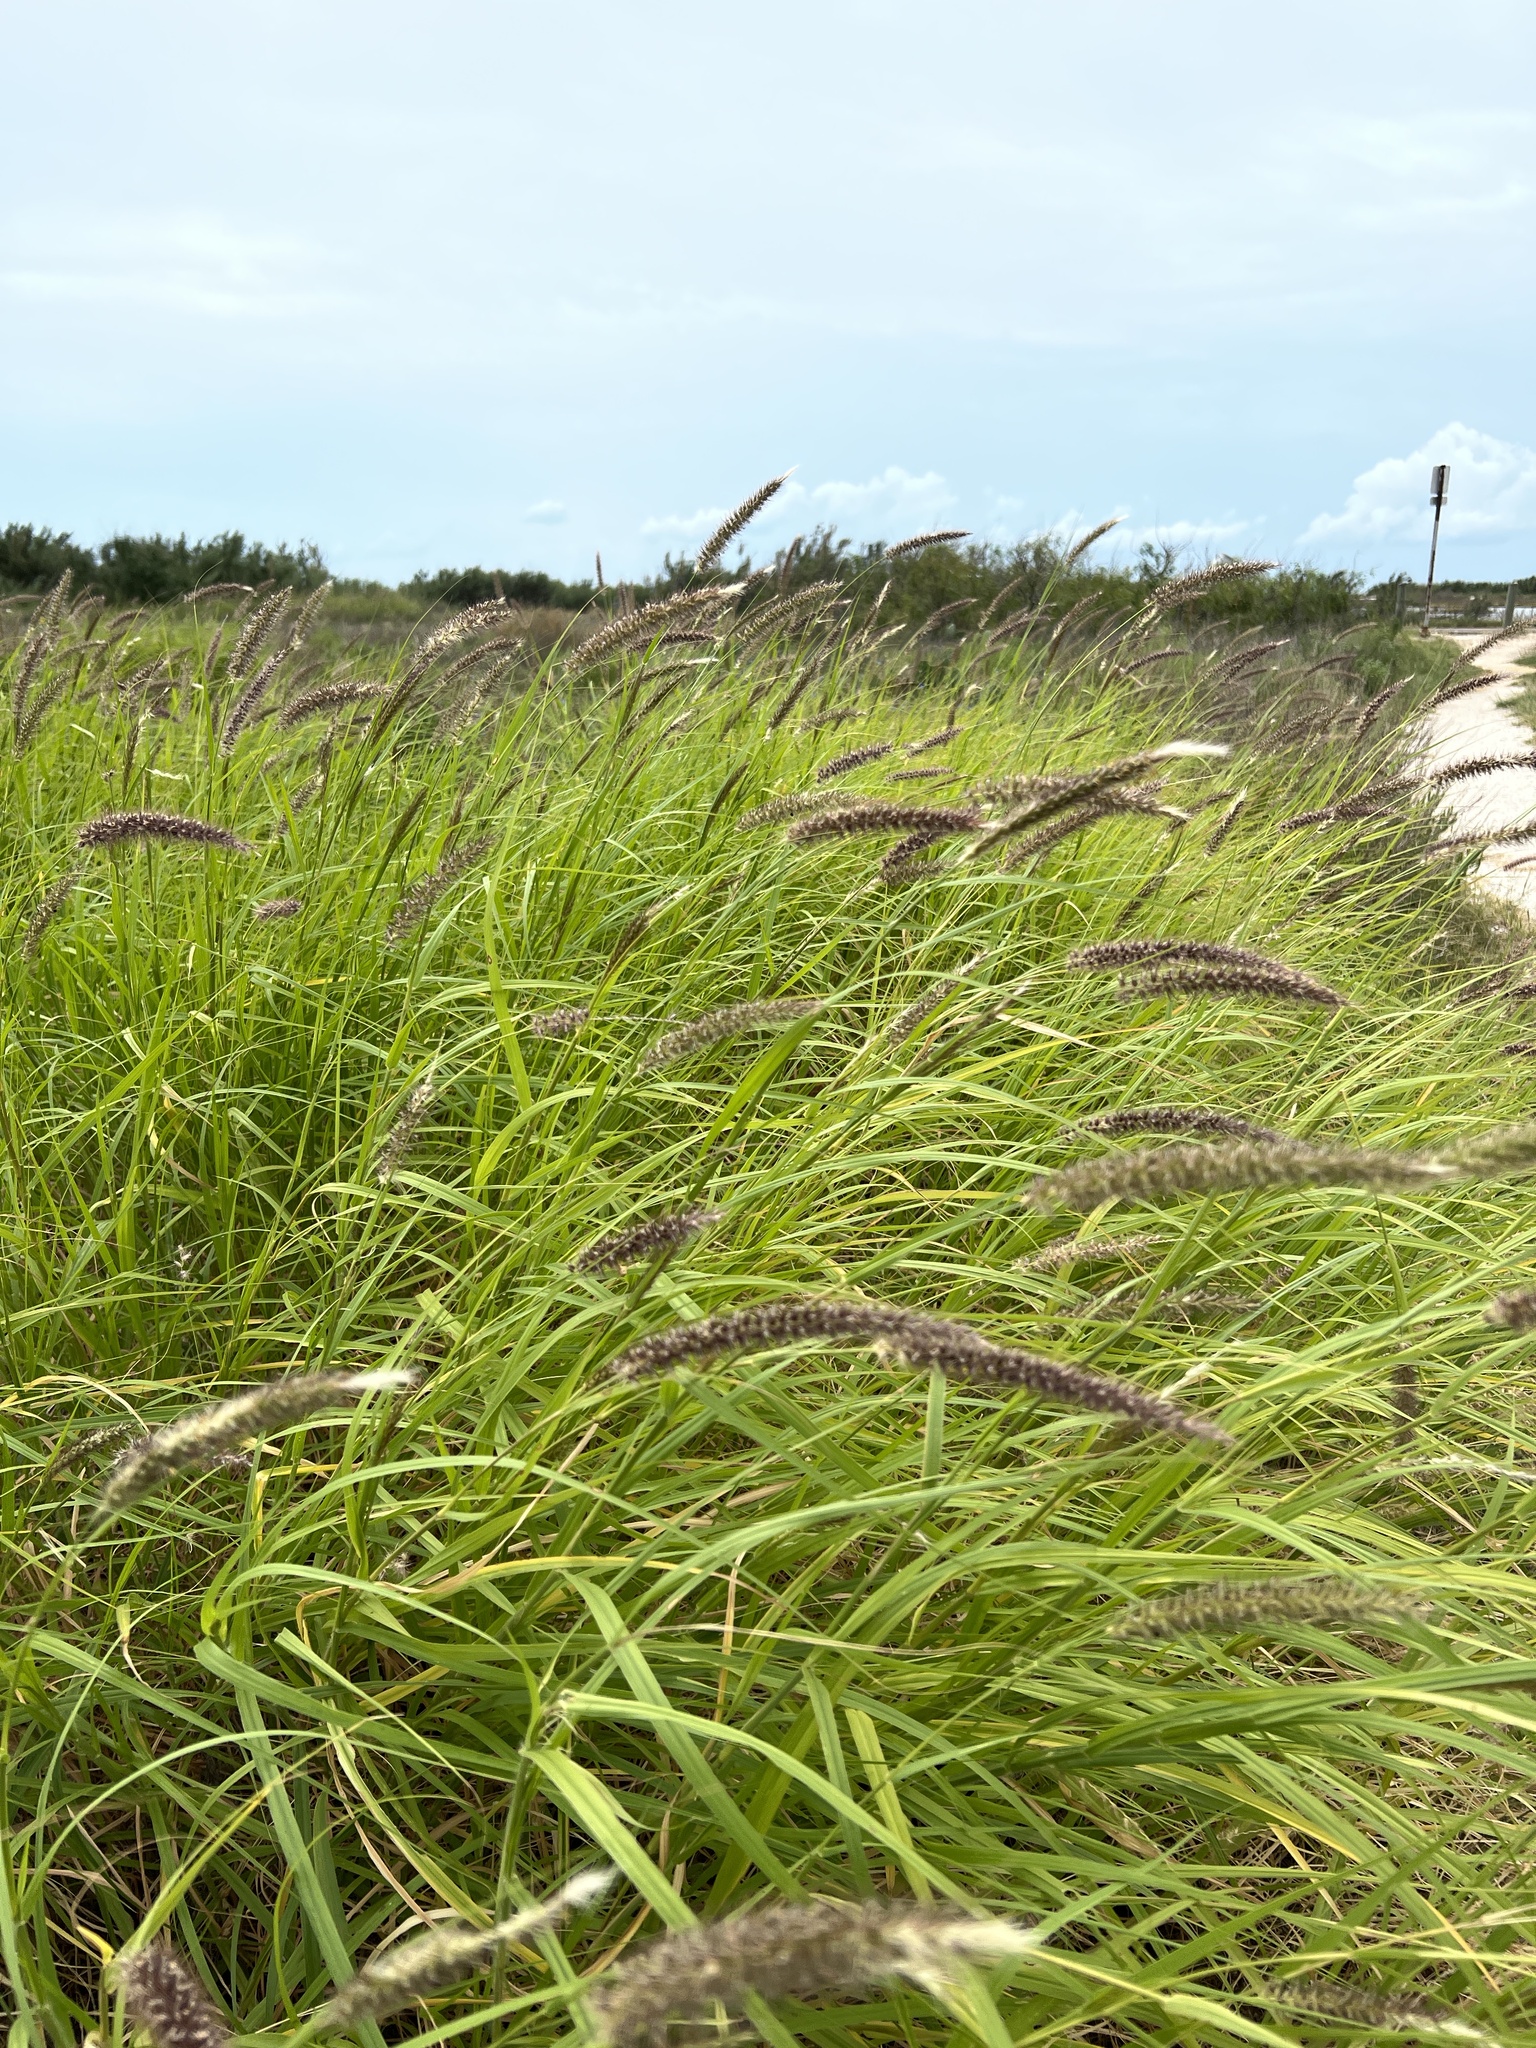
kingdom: Plantae
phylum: Tracheophyta
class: Liliopsida
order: Poales
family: Poaceae
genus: Cenchrus
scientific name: Cenchrus ciliaris
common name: Buffelgrass
